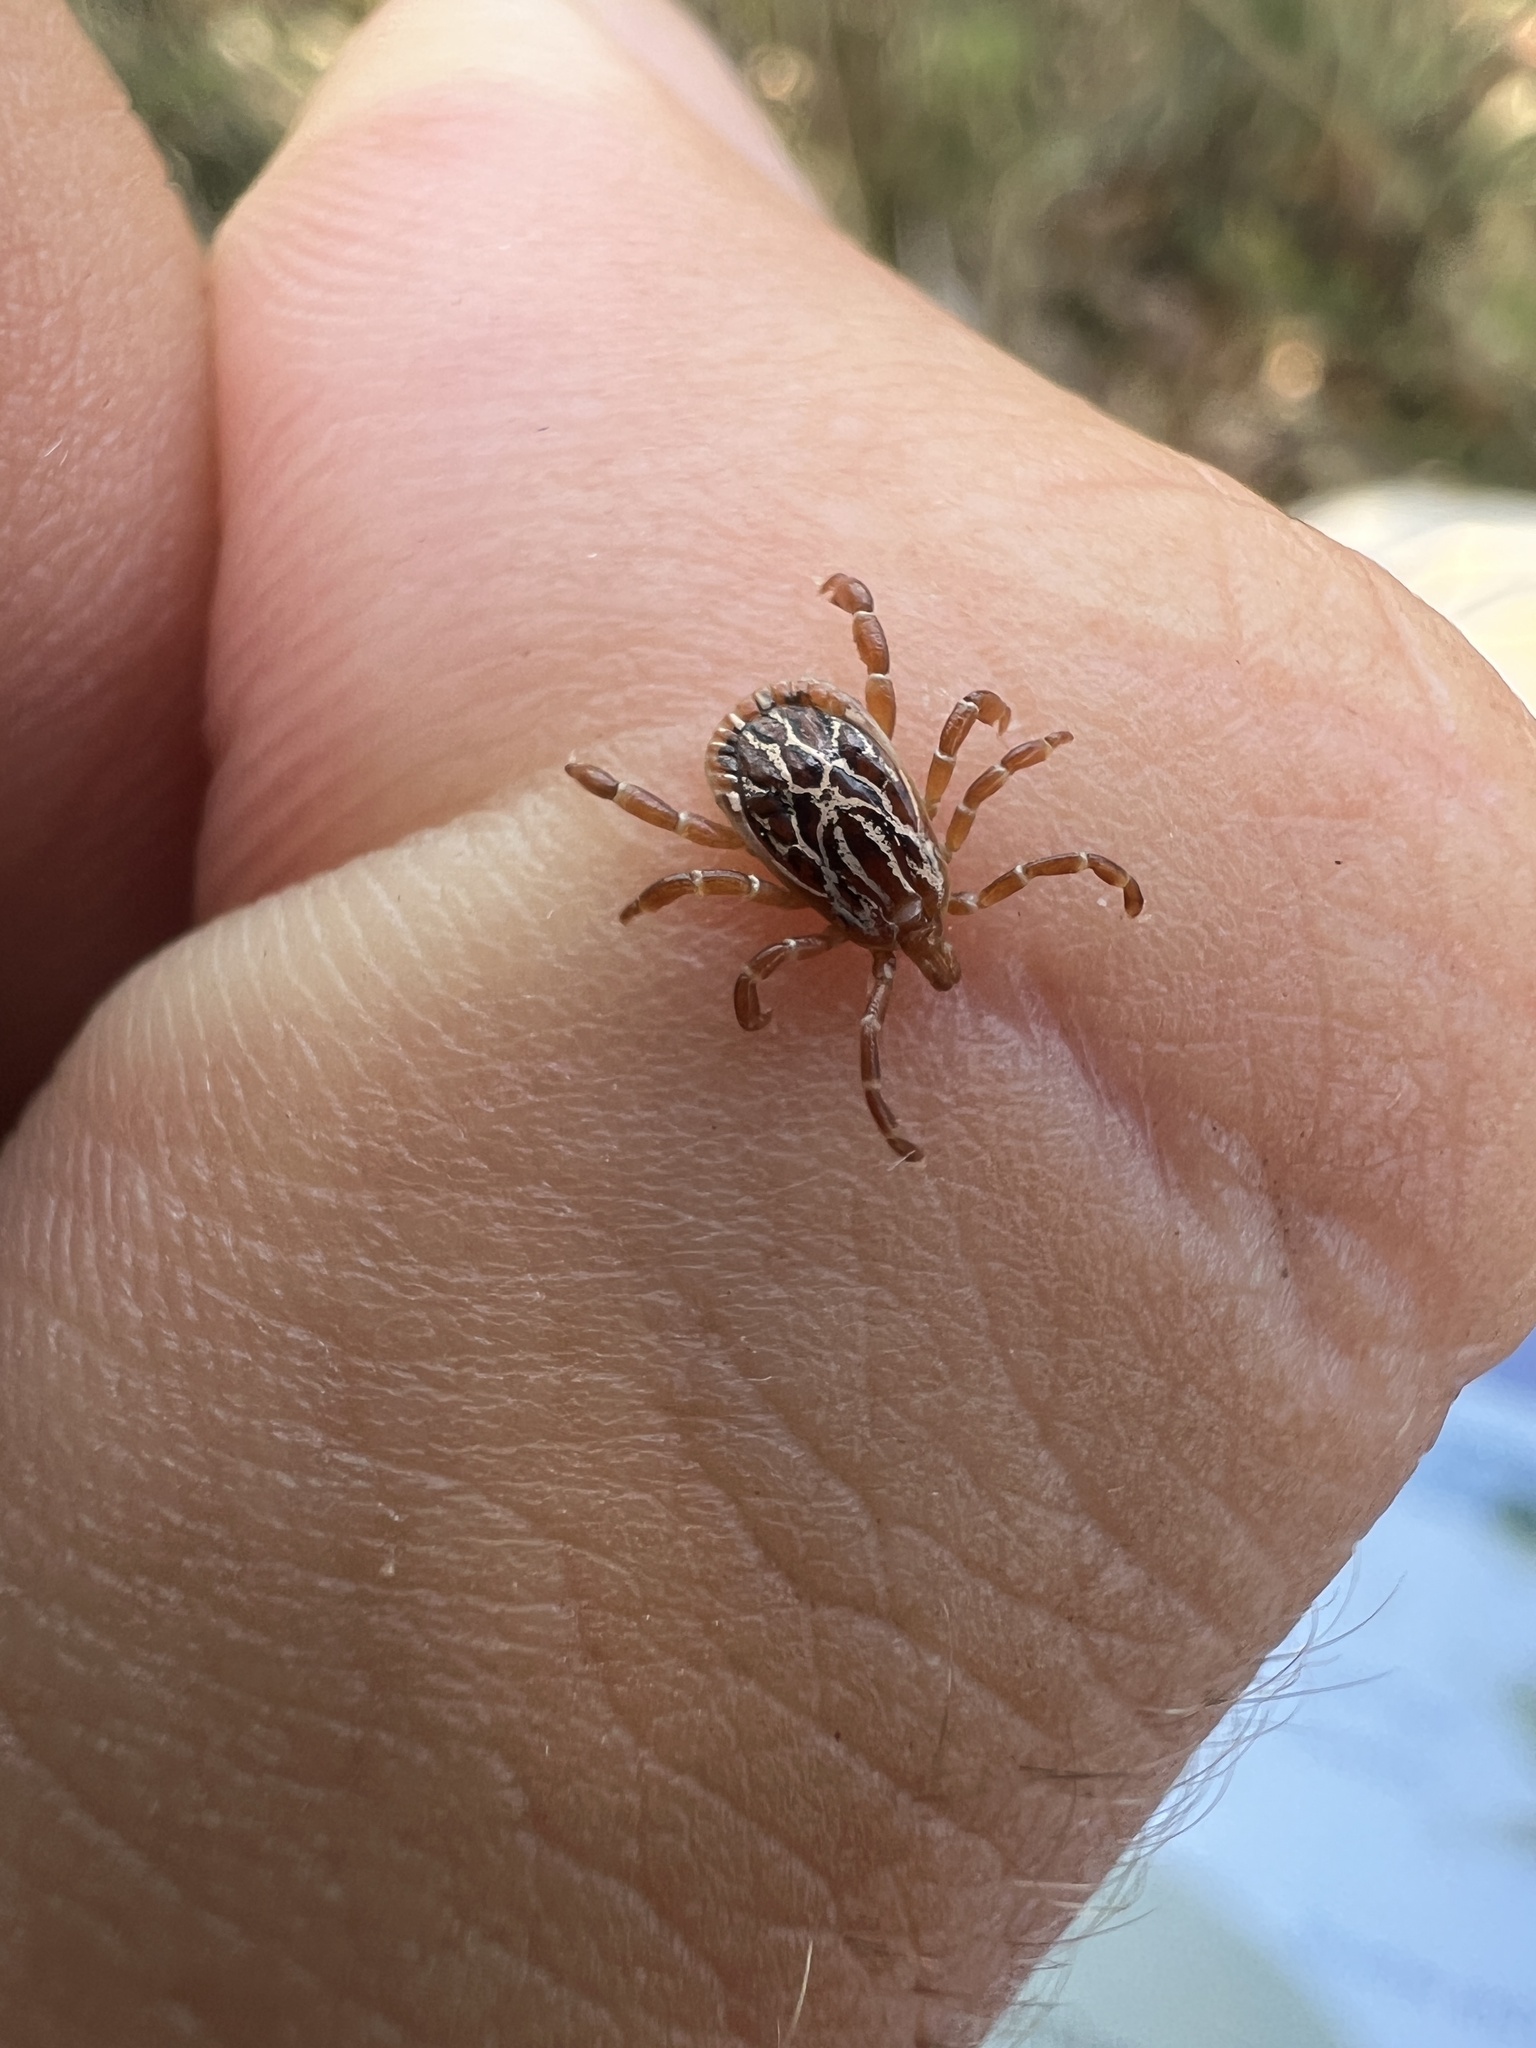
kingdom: Animalia
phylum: Arthropoda
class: Arachnida
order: Ixodida
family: Ixodidae
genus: Amblyomma
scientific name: Amblyomma maculatum
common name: Gulf coast tick
